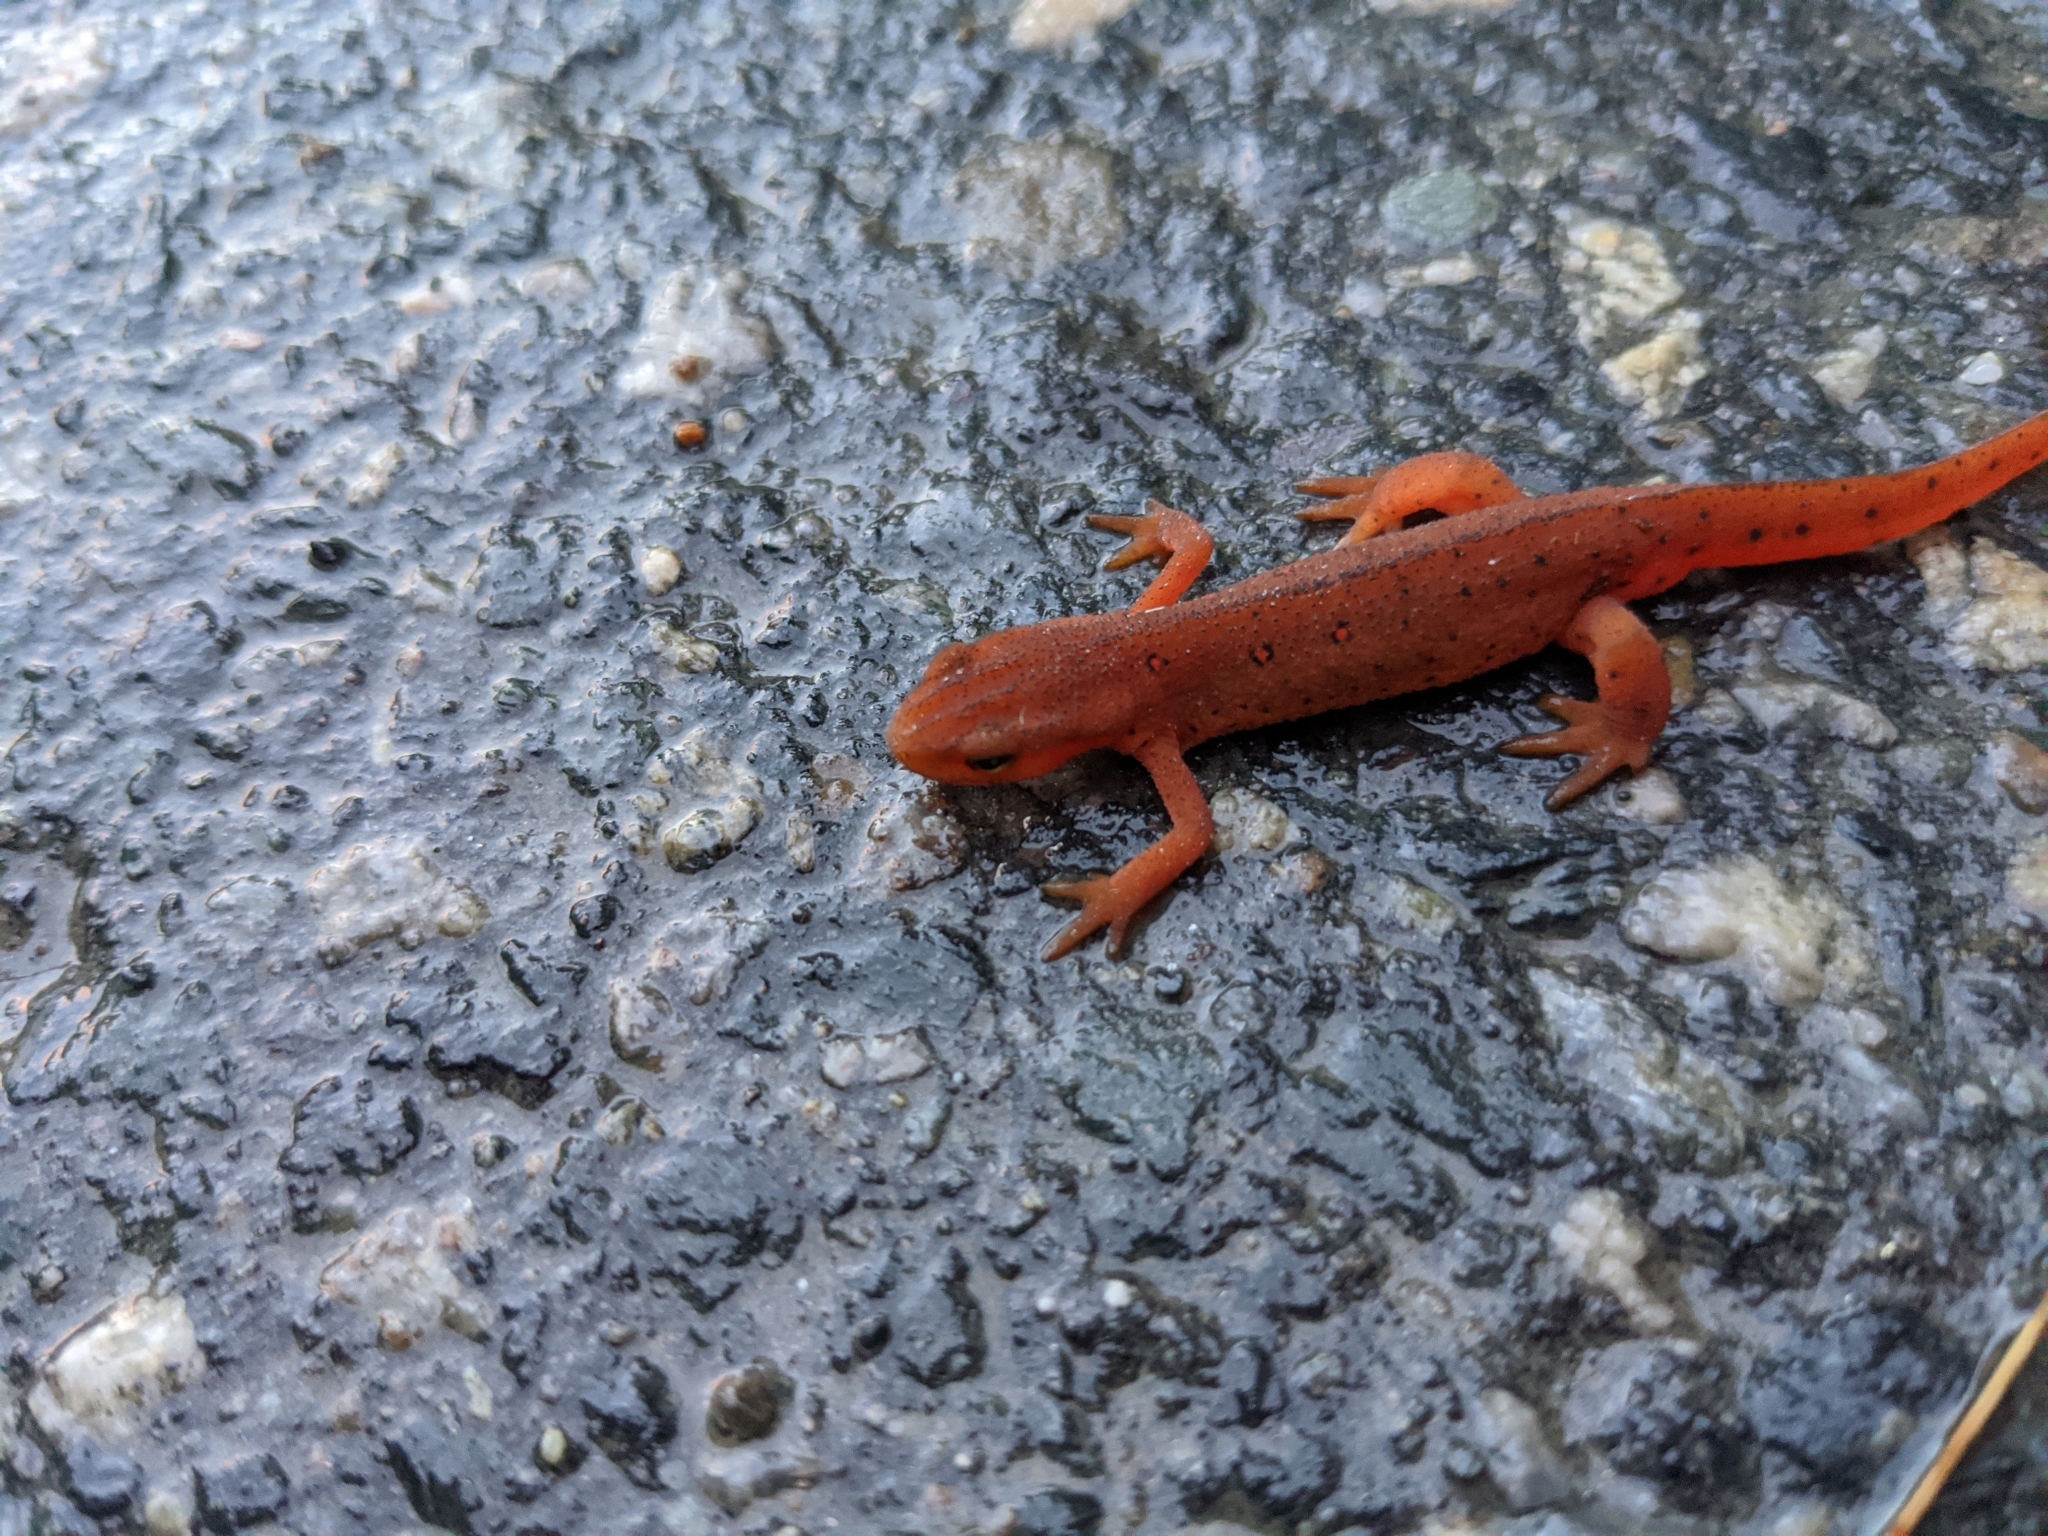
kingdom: Animalia
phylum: Chordata
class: Amphibia
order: Caudata
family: Salamandridae
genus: Notophthalmus
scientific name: Notophthalmus viridescens
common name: Eastern newt
